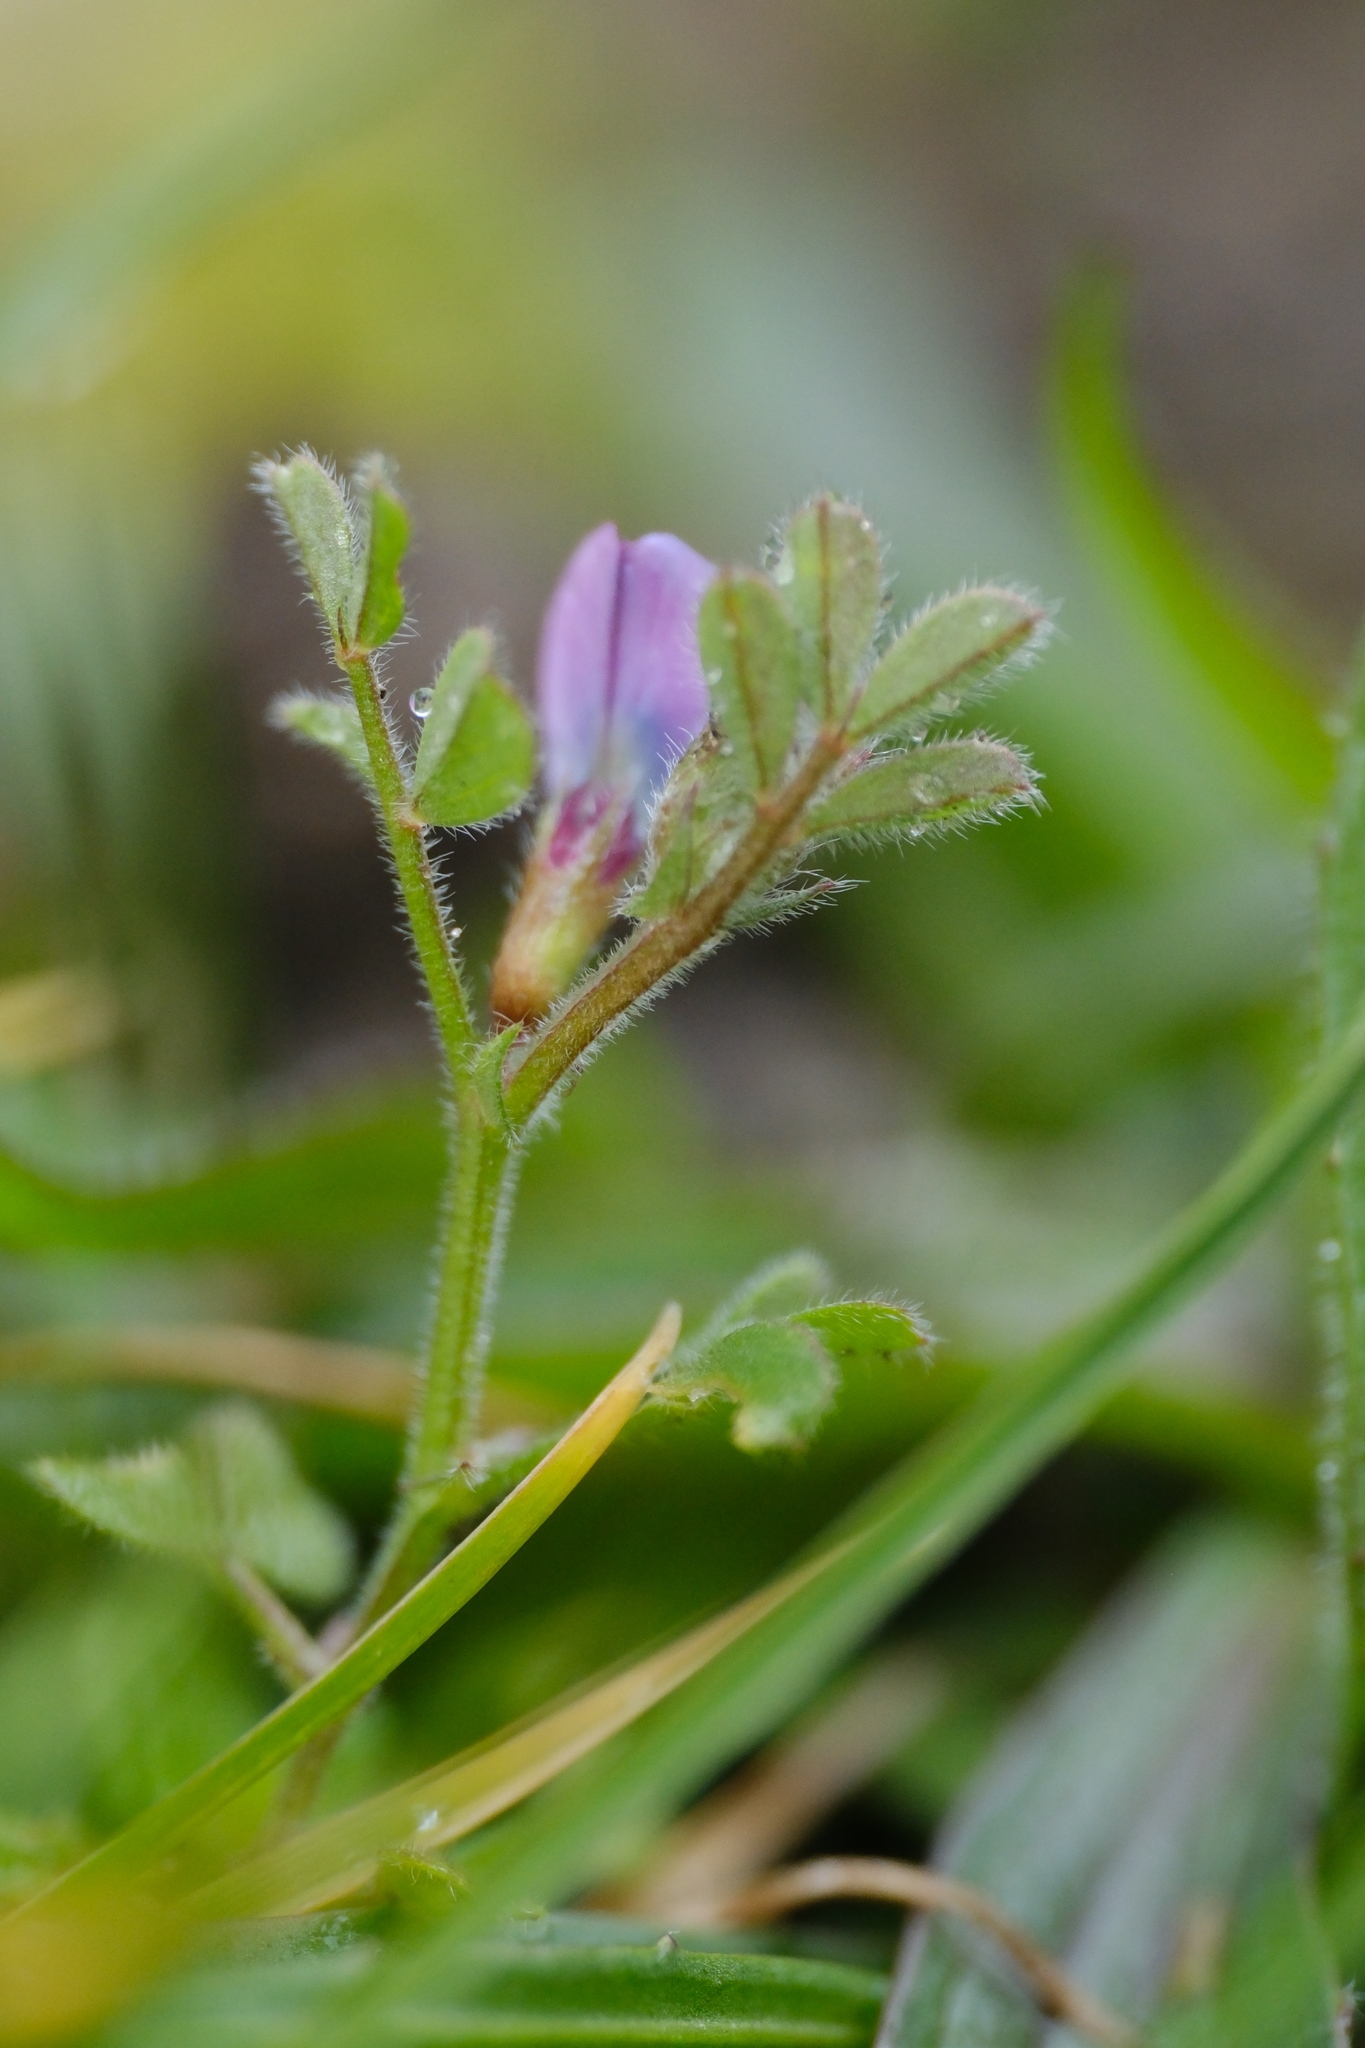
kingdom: Plantae
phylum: Tracheophyta
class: Magnoliopsida
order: Fabales
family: Fabaceae
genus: Vicia
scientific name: Vicia lathyroides
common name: Spring vetch
